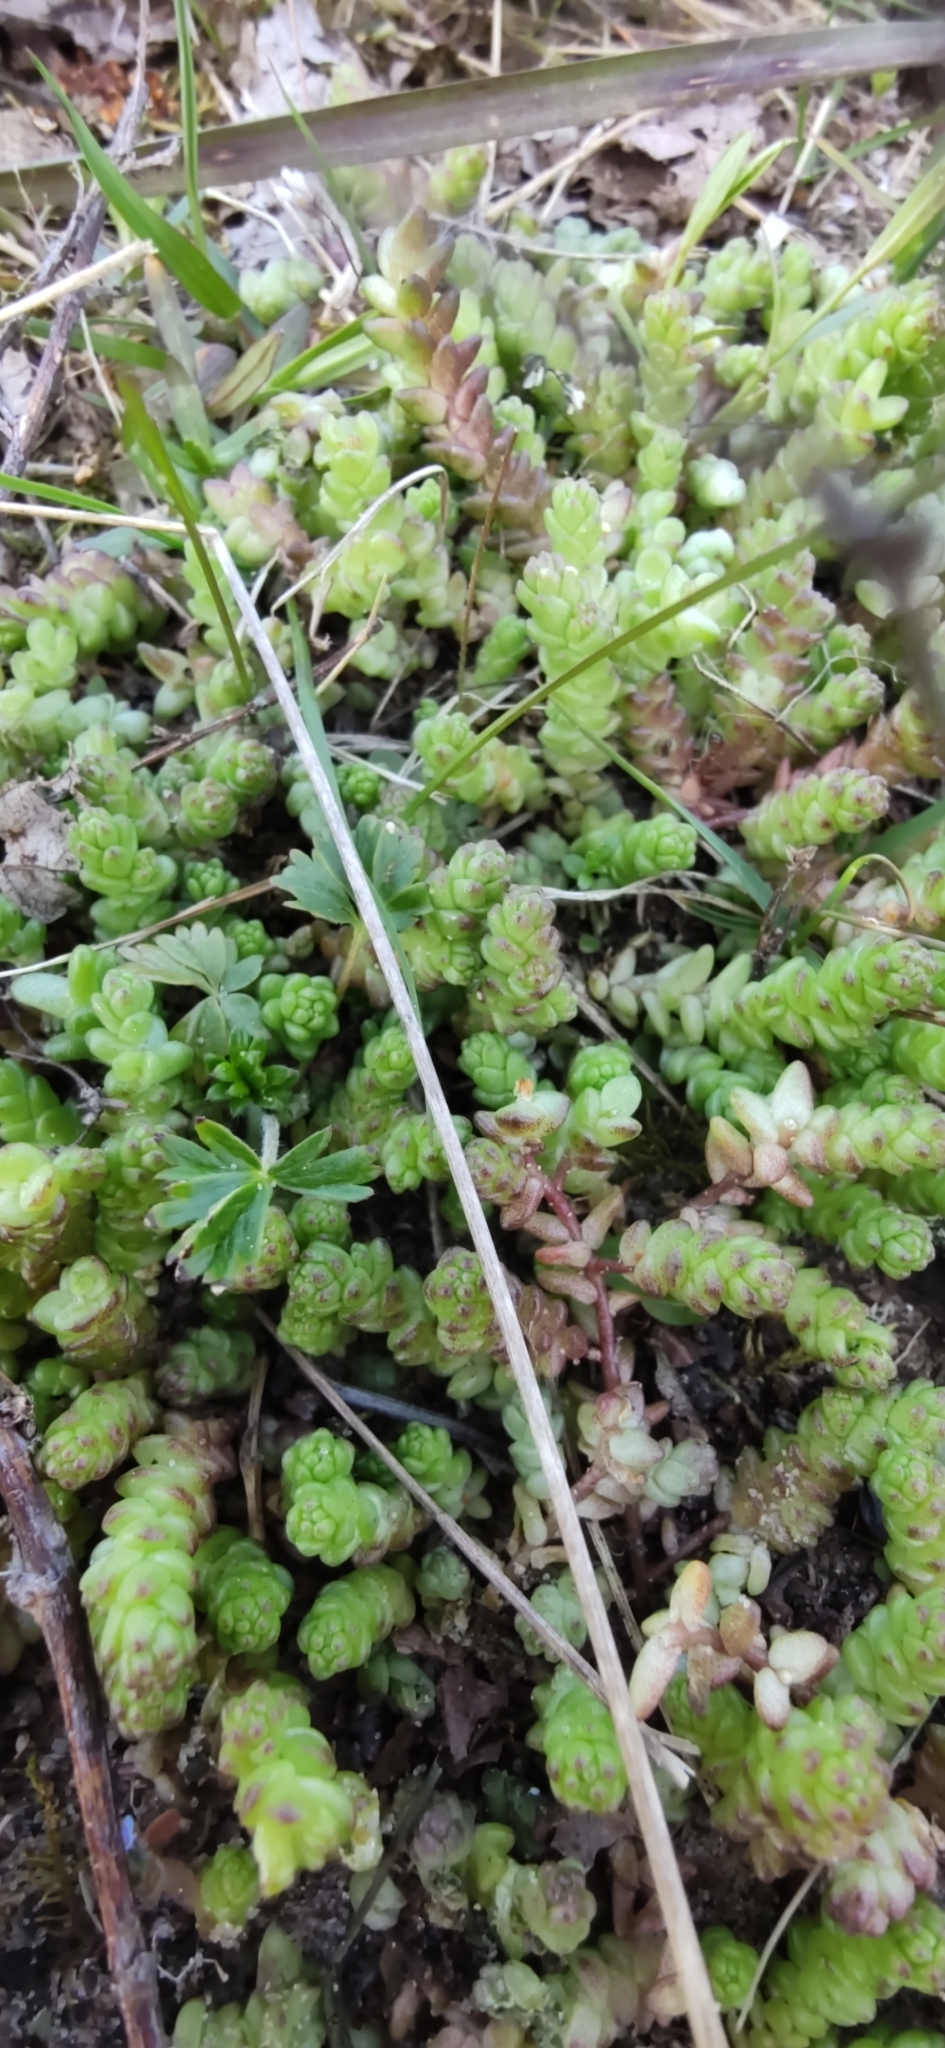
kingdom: Plantae
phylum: Tracheophyta
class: Magnoliopsida
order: Saxifragales
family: Crassulaceae
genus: Sedum
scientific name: Sedum acre
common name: Biting stonecrop
